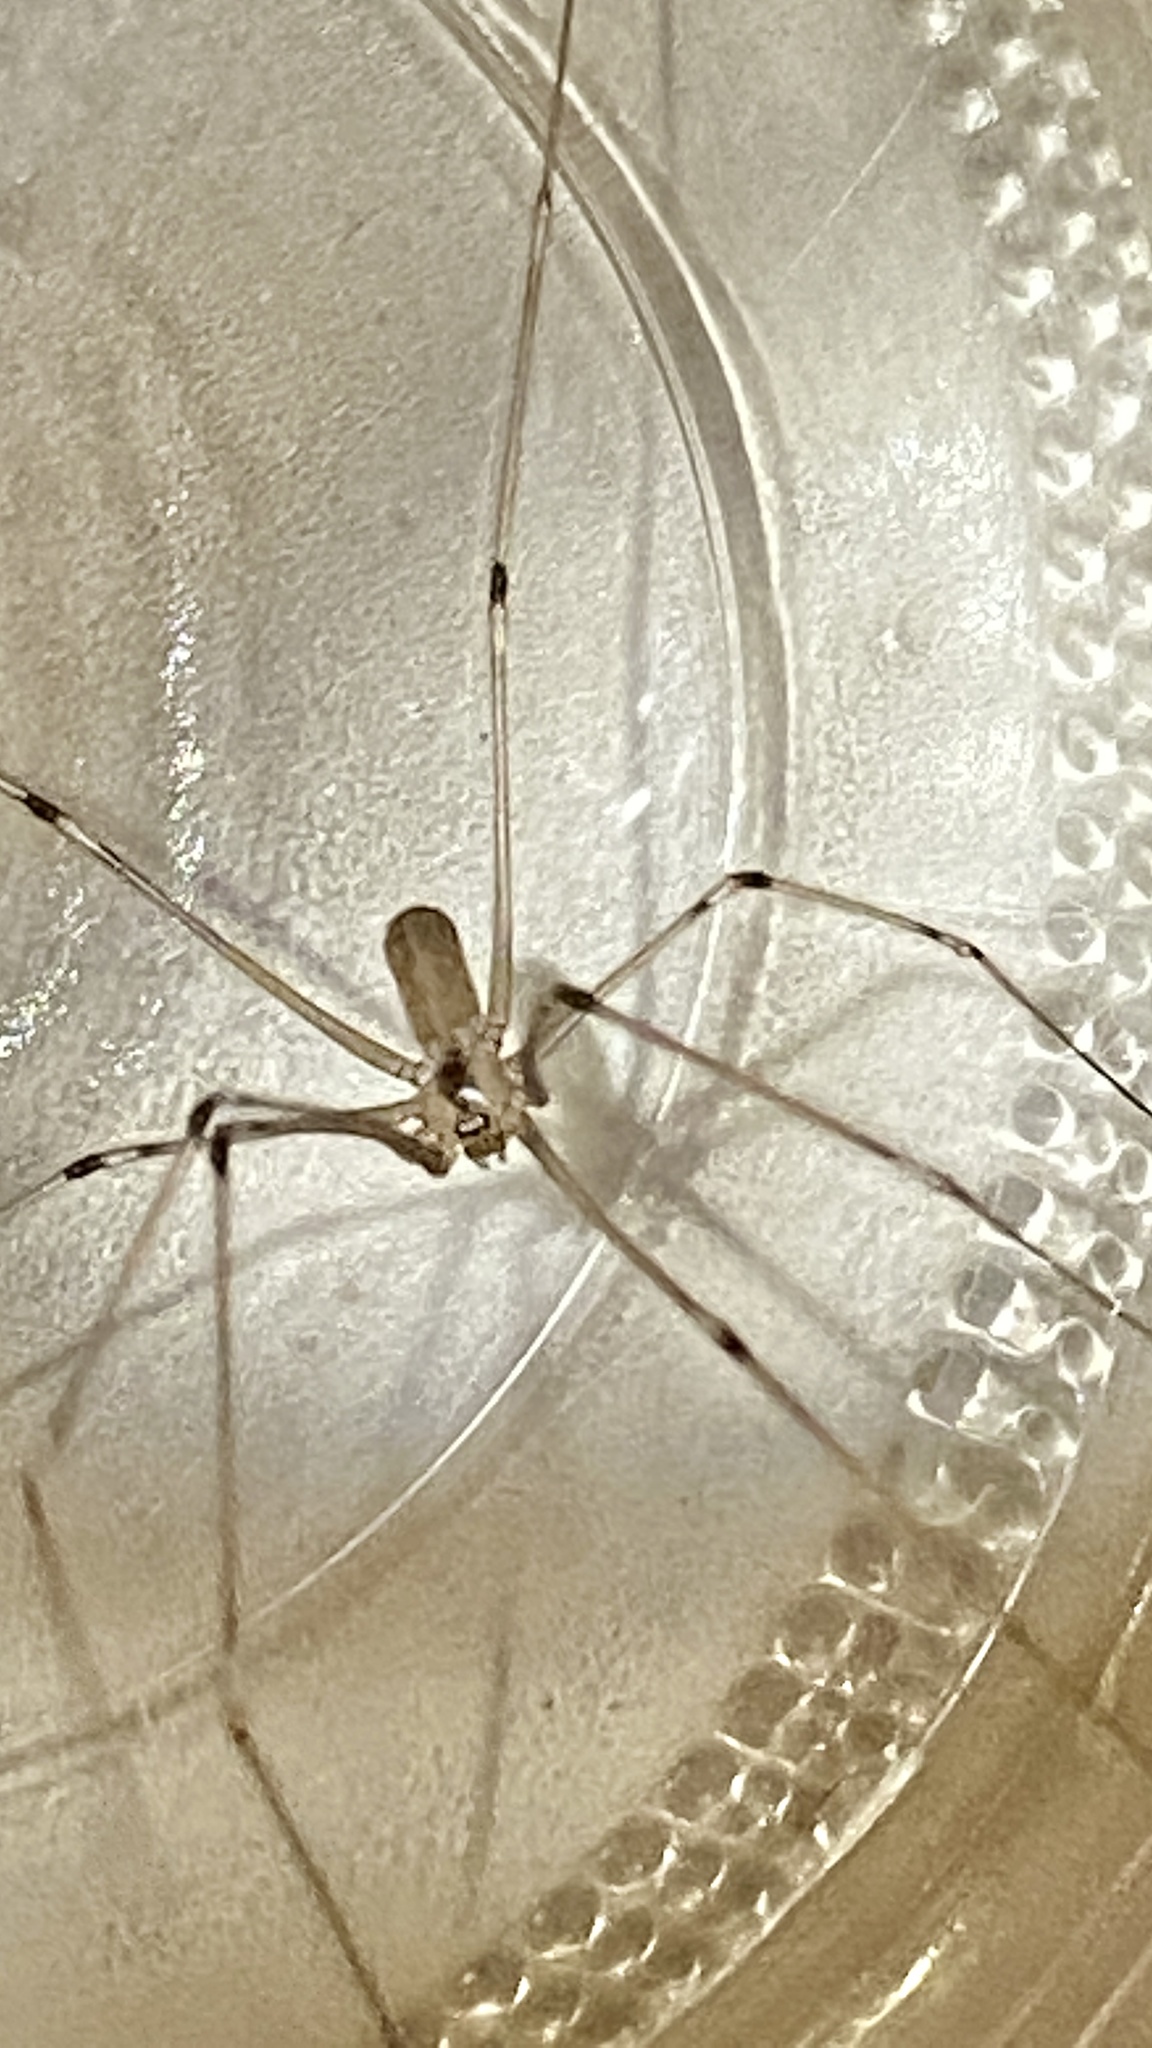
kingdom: Animalia
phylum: Arthropoda
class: Arachnida
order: Araneae
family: Pholcidae
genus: Pholcus
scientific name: Pholcus phalangioides
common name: Longbodied cellar spider
